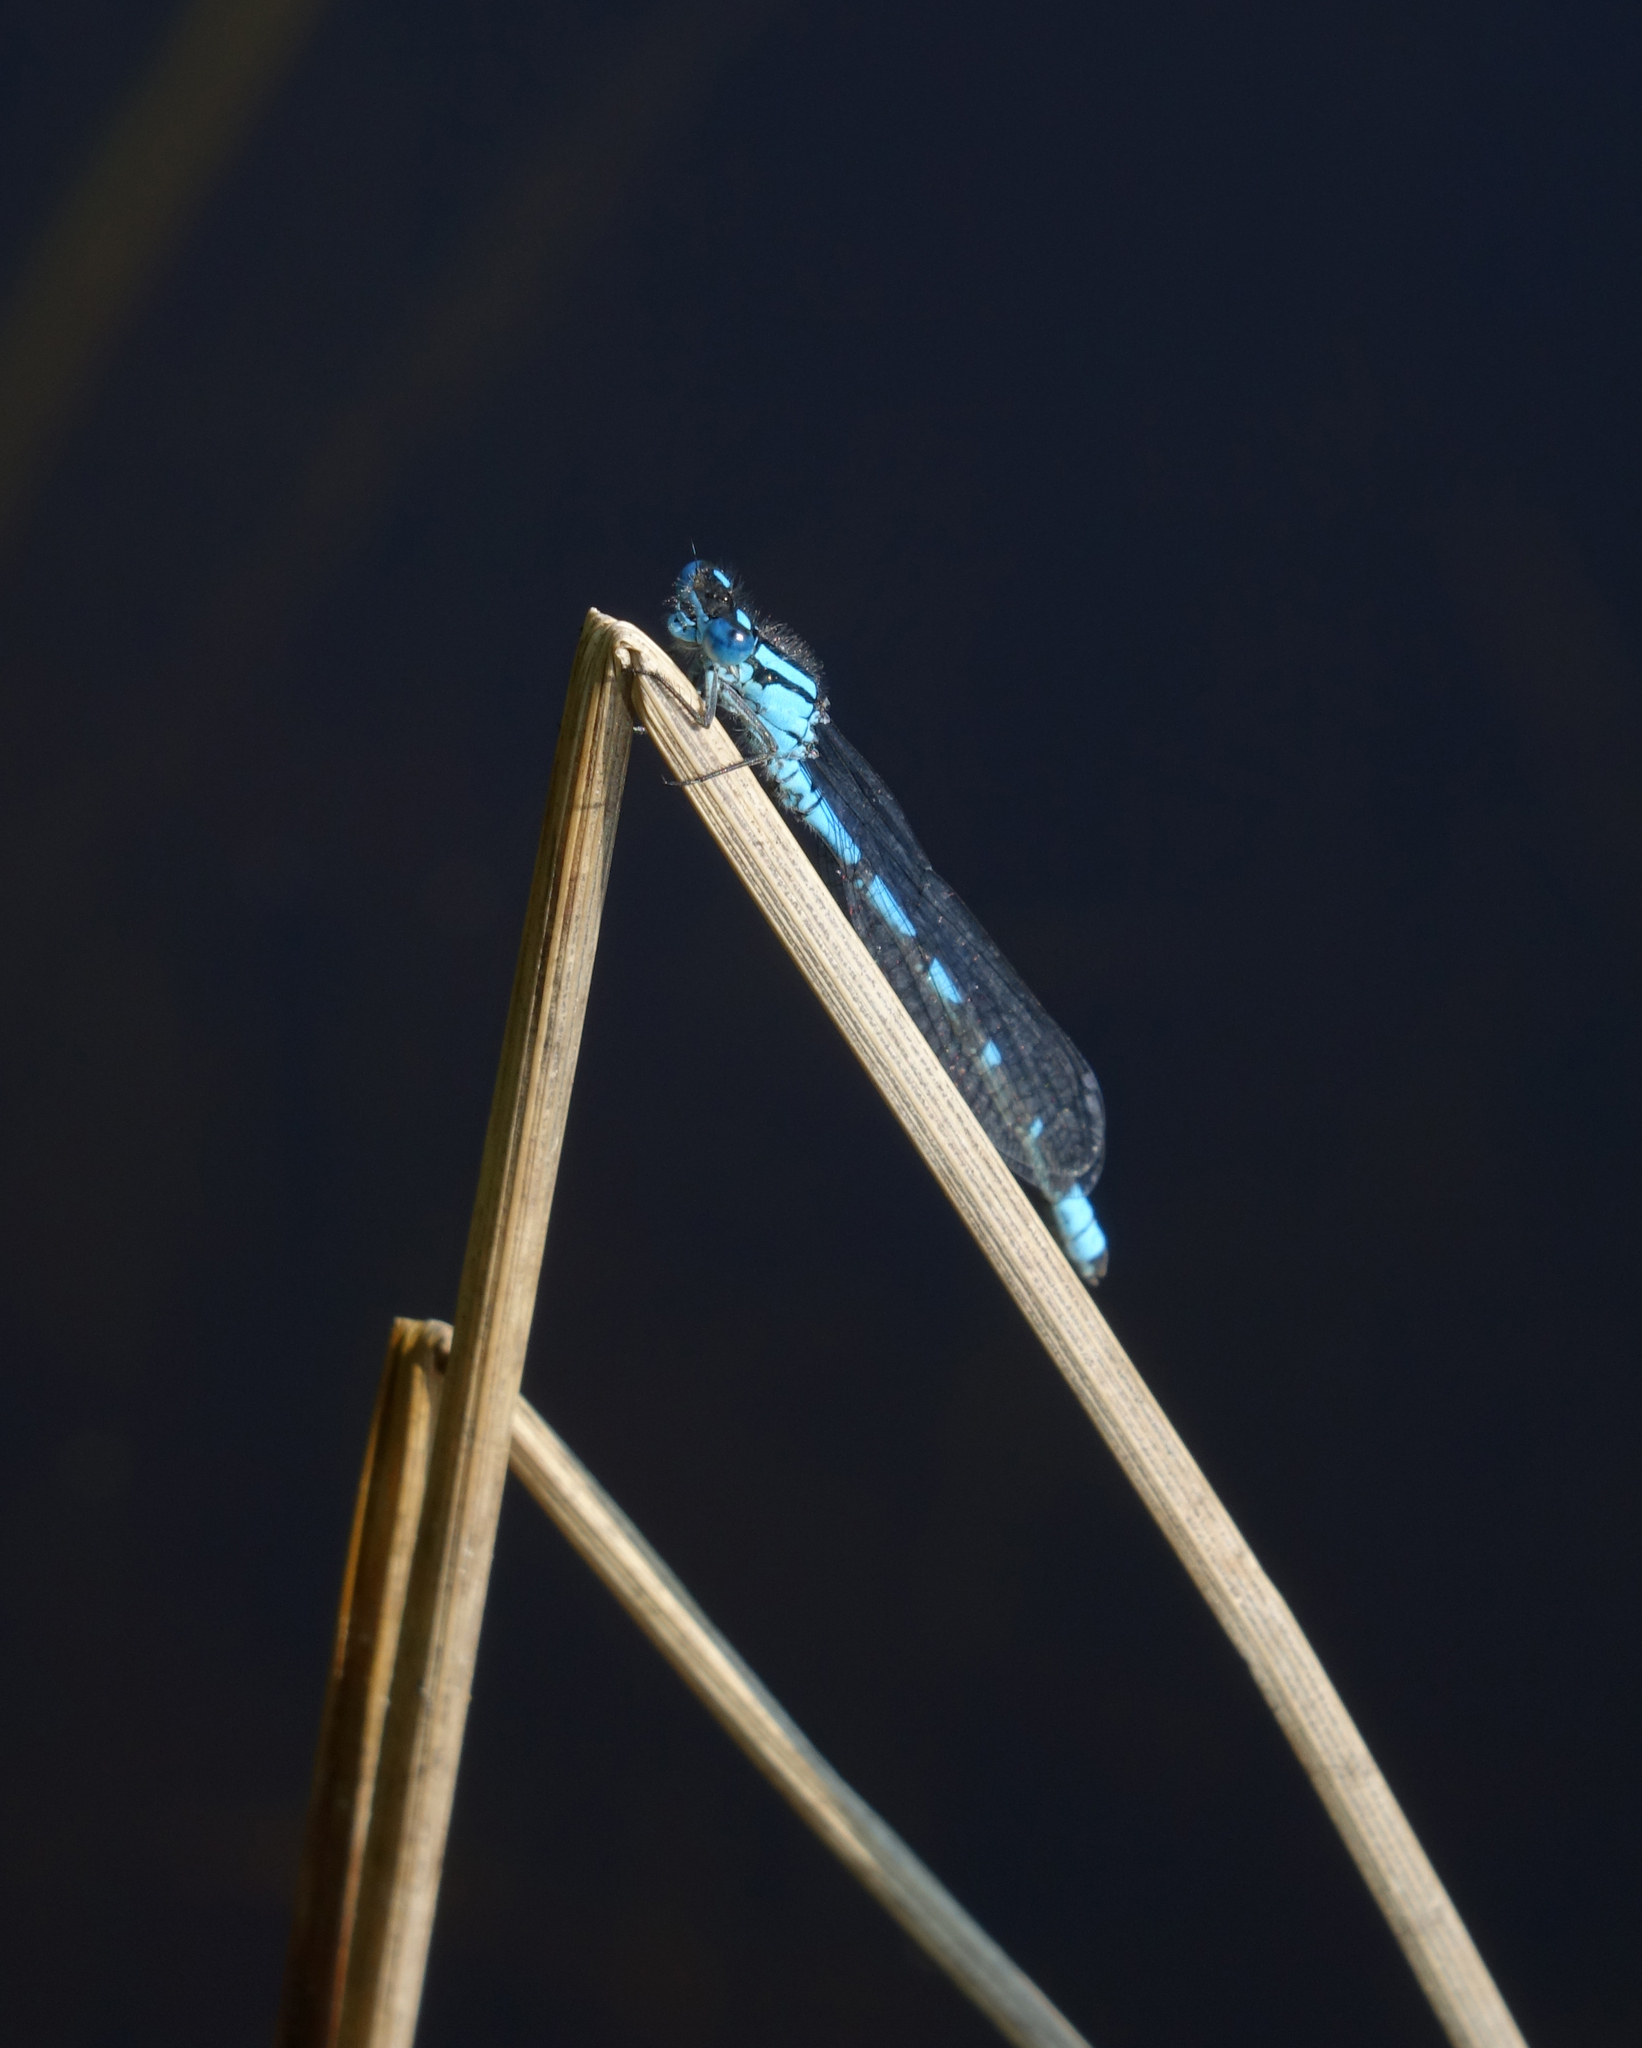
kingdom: Animalia
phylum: Arthropoda
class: Insecta
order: Odonata
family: Coenagrionidae
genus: Enallagma
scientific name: Enallagma cyathigerum
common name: Common blue damselfly
